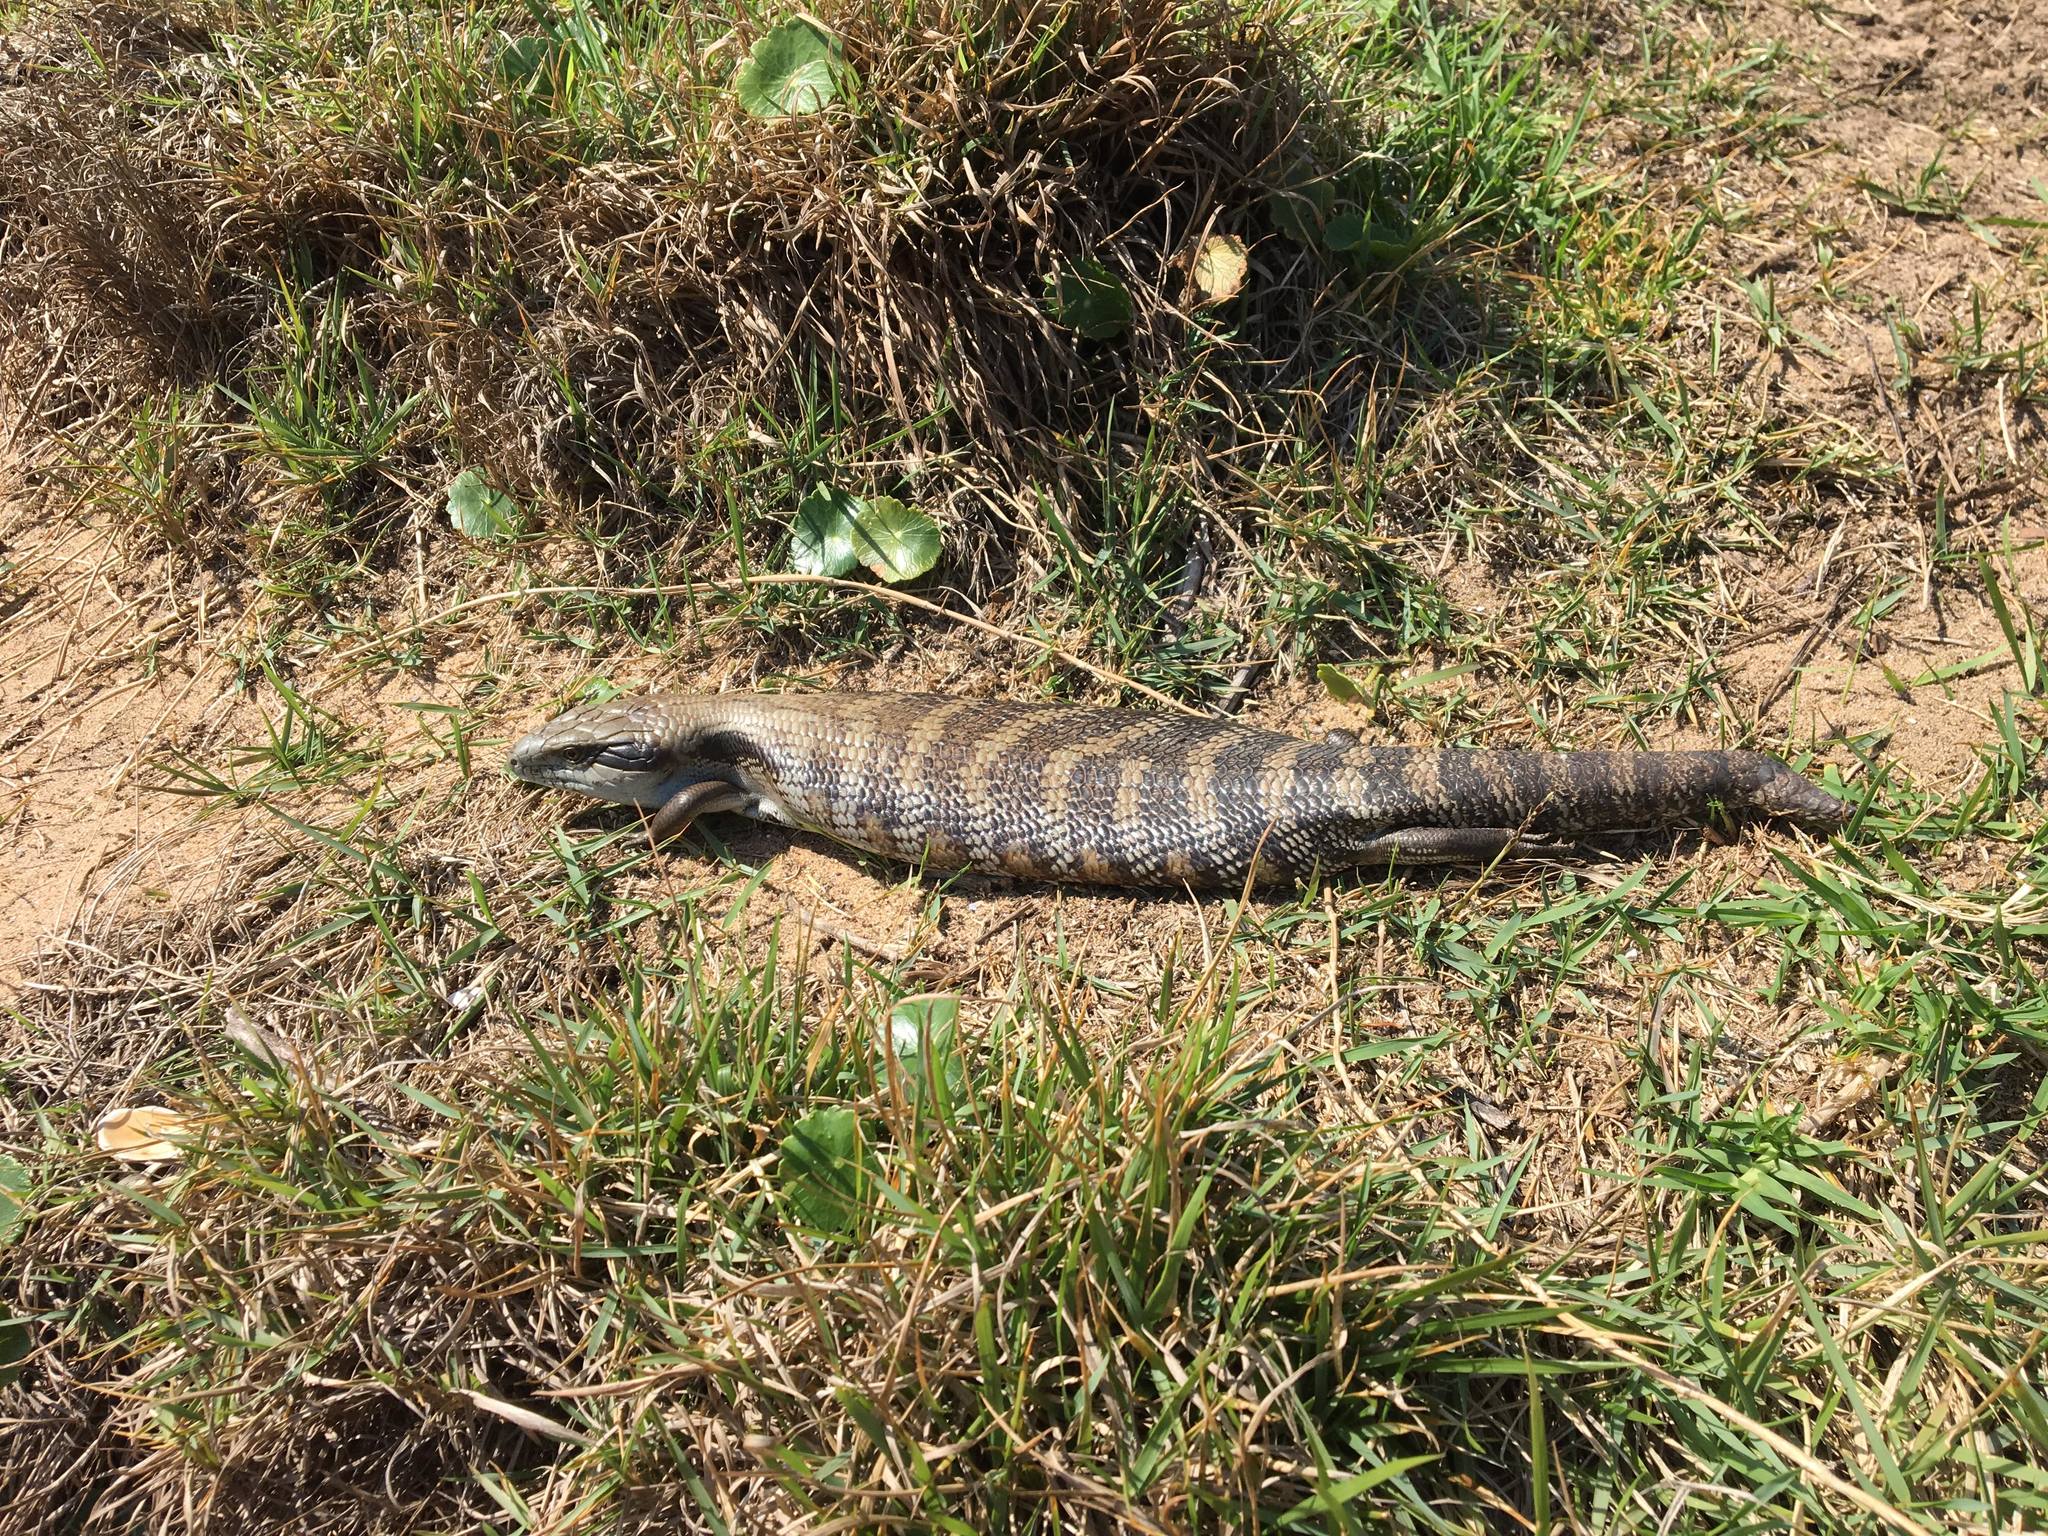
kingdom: Animalia
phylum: Chordata
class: Squamata
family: Scincidae
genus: Tiliqua
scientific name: Tiliqua scincoides
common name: Common bluetongue
